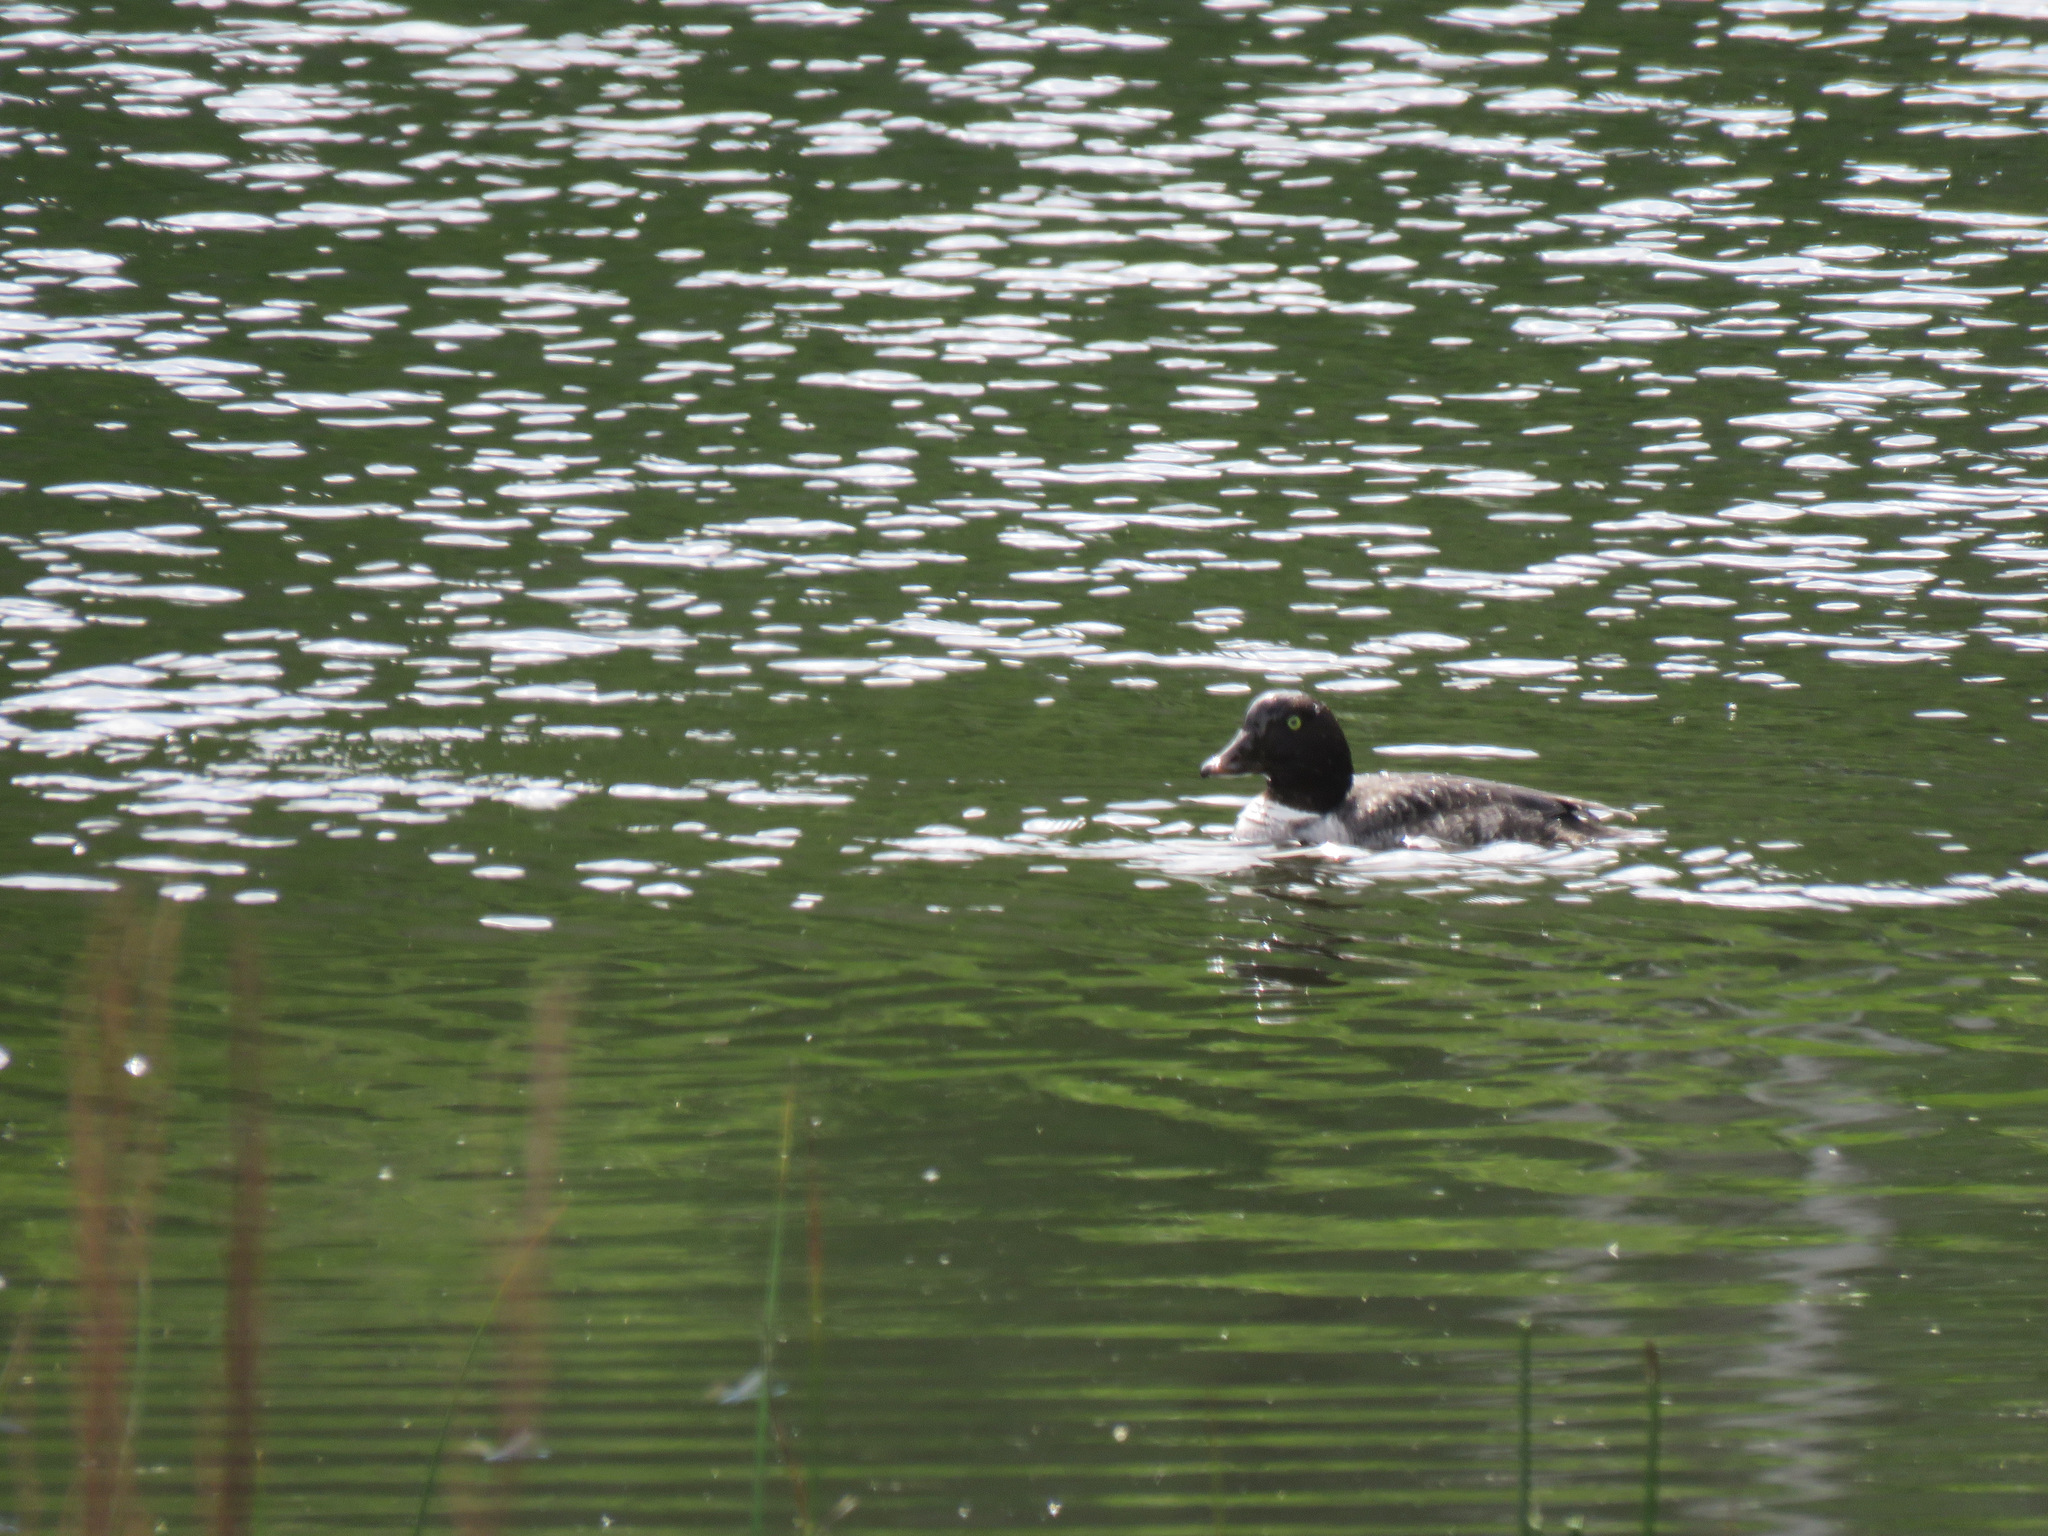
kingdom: Animalia
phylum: Chordata
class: Aves
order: Anseriformes
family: Anatidae
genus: Bucephala
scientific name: Bucephala clangula
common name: Common goldeneye
